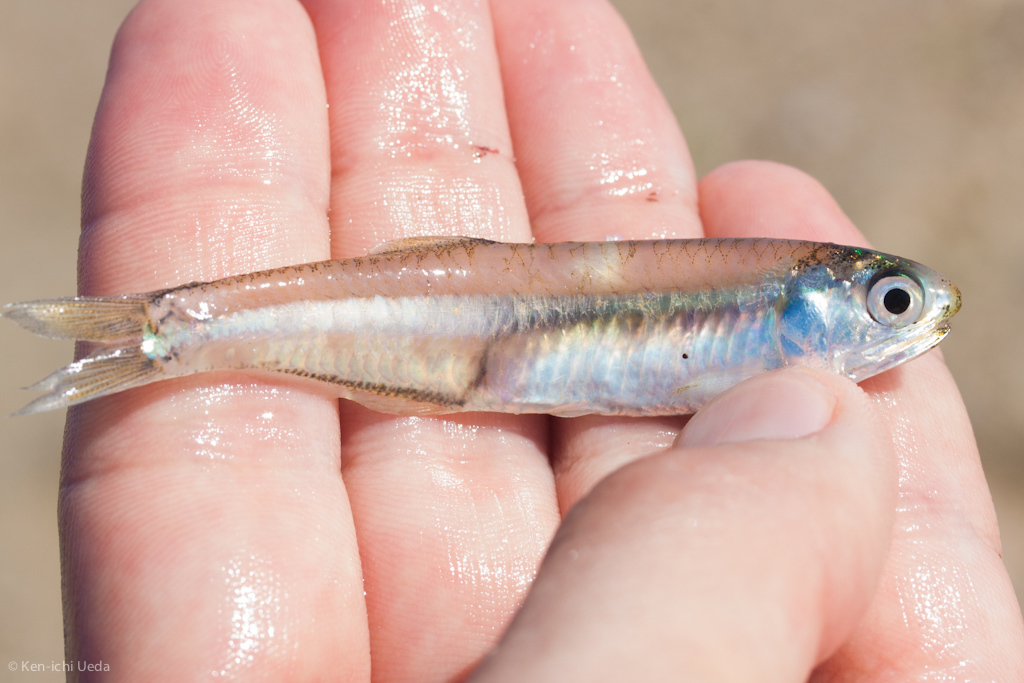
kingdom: Animalia
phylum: Chordata
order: Clupeiformes
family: Engraulidae
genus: Anchoa
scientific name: Anchoa mitchilli
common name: Bay anchovy
